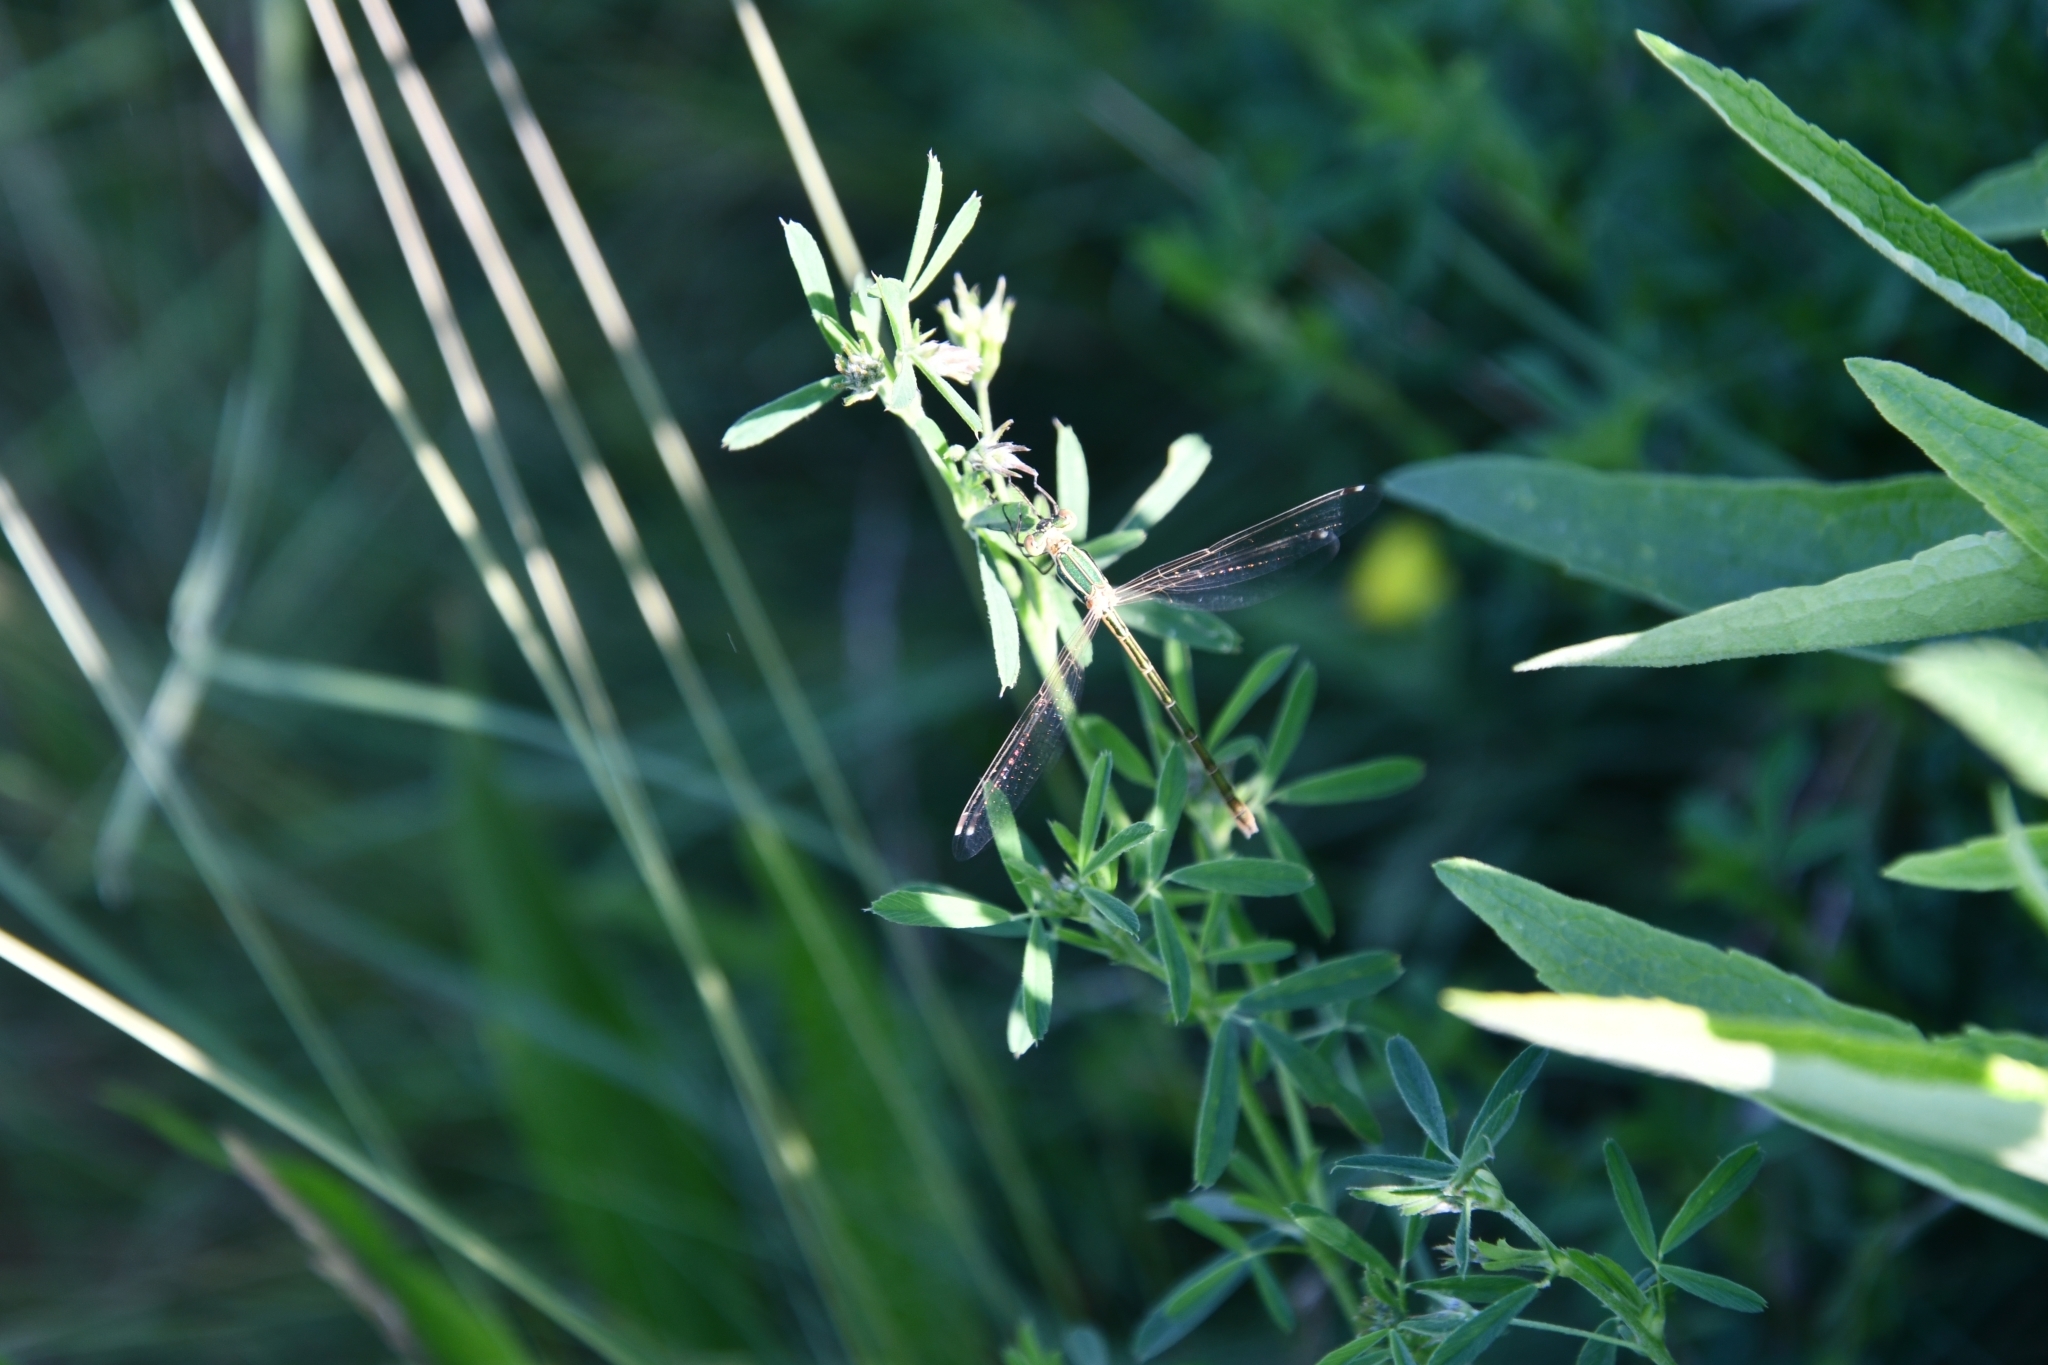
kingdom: Animalia
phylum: Arthropoda
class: Insecta
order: Odonata
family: Lestidae
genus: Lestes
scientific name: Lestes barbarus
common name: Migrant spreadwing
